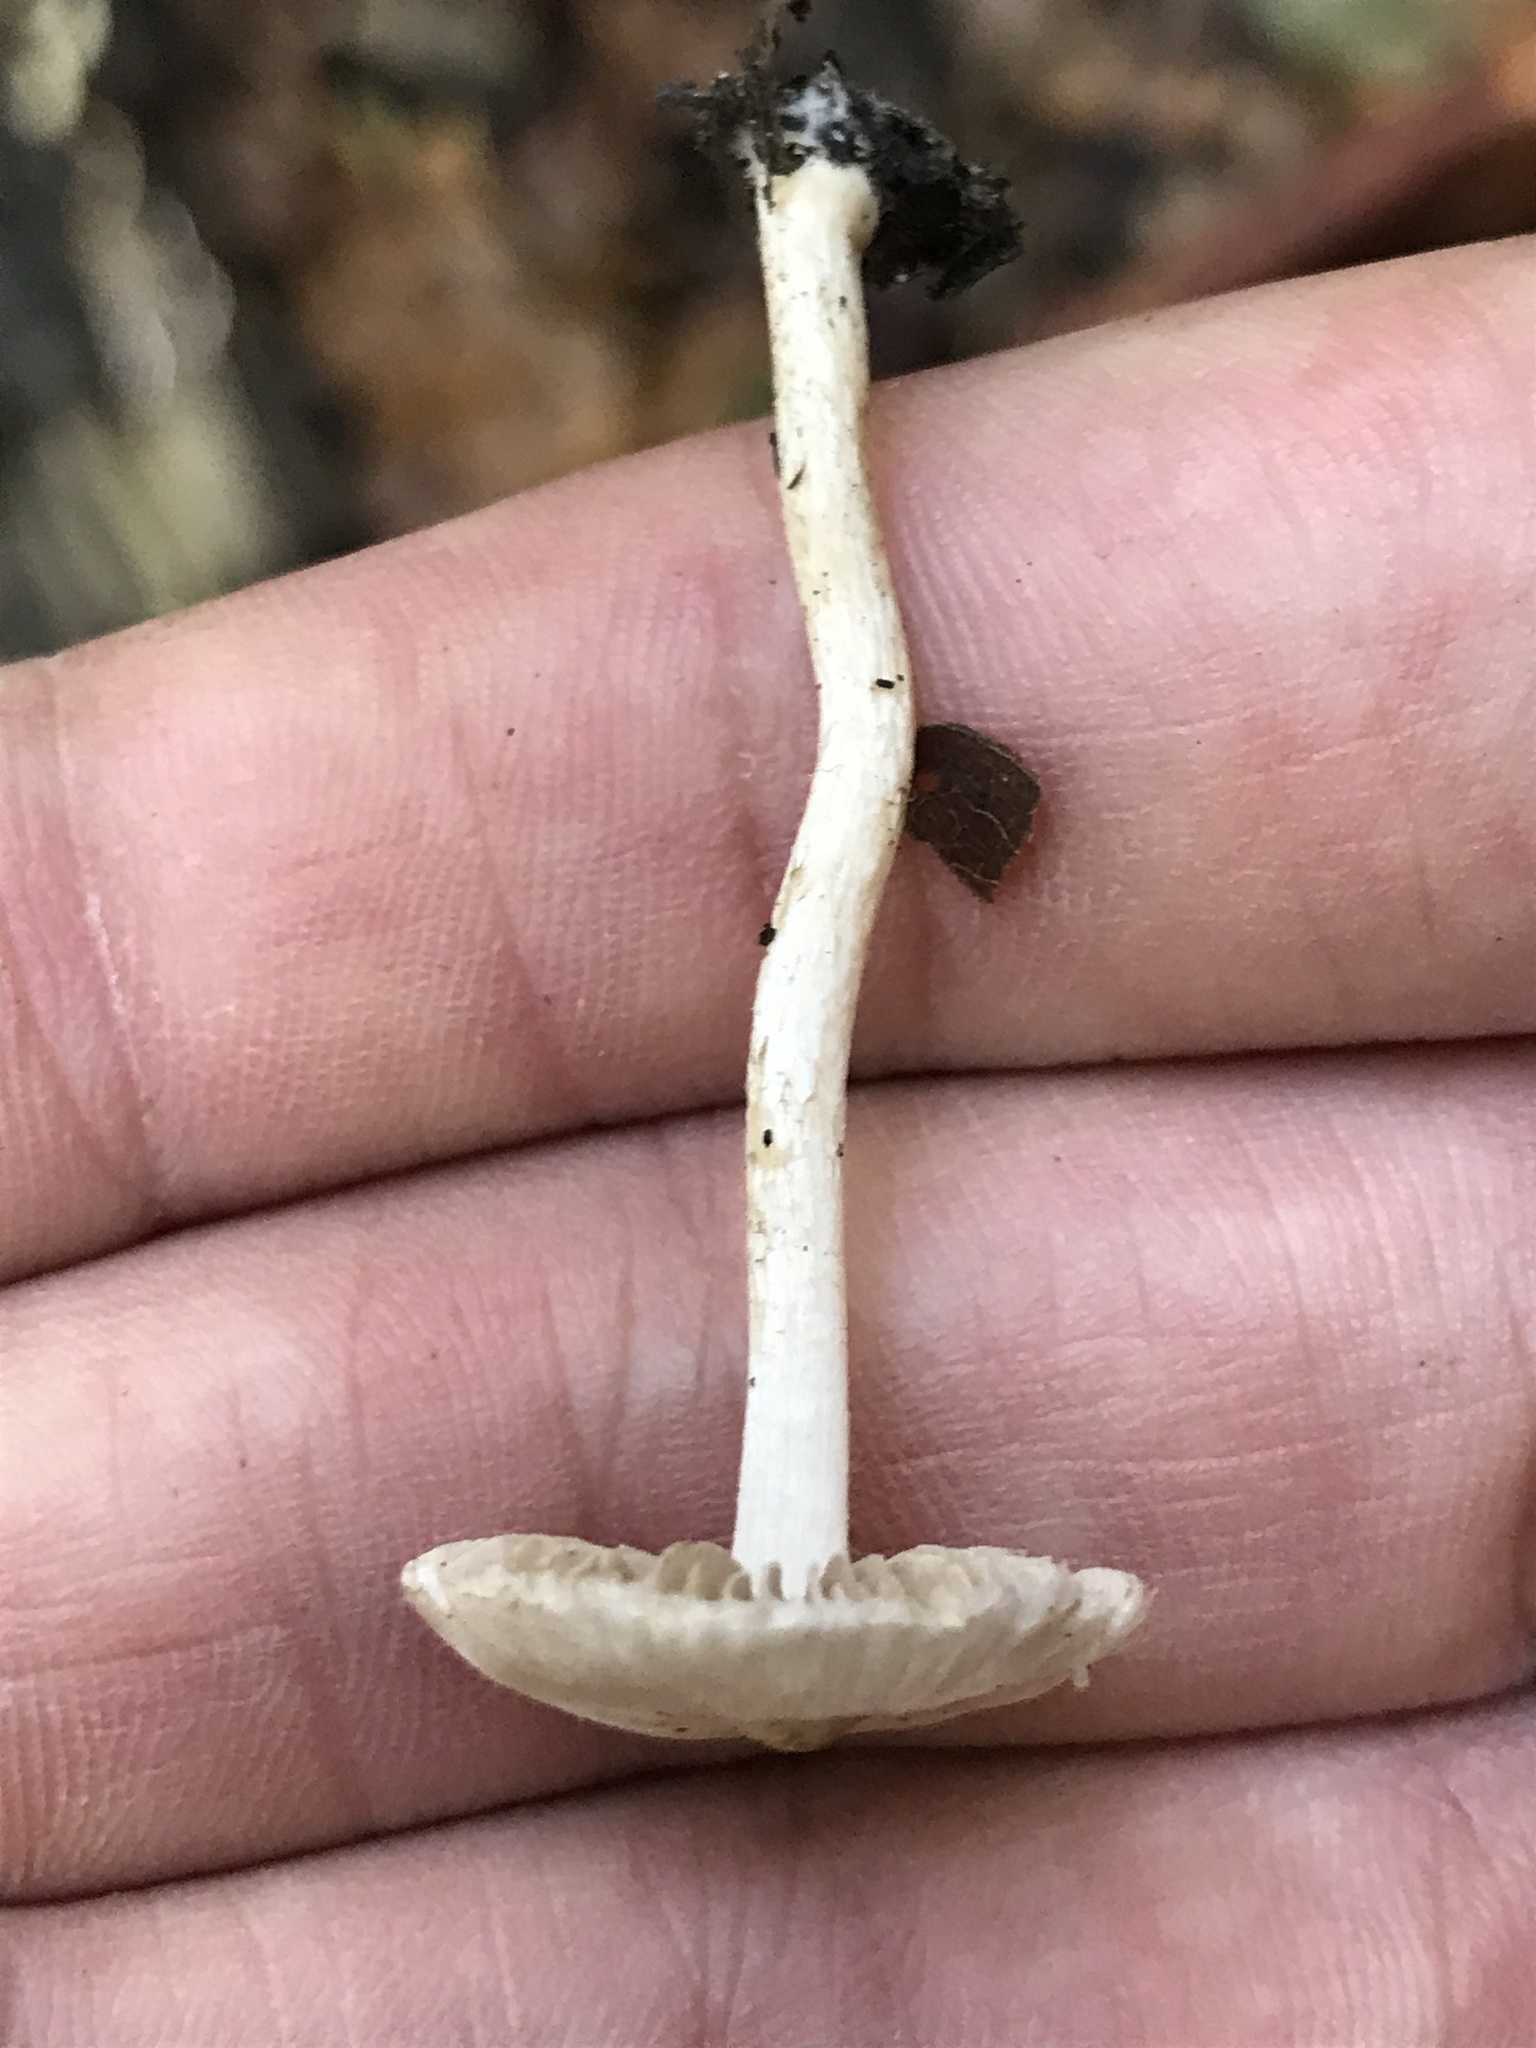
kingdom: Fungi
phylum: Basidiomycota
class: Agaricomycetes
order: Agaricales
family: Inocybaceae
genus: Inocybe
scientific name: Inocybe geophylla
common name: White fibrecap
